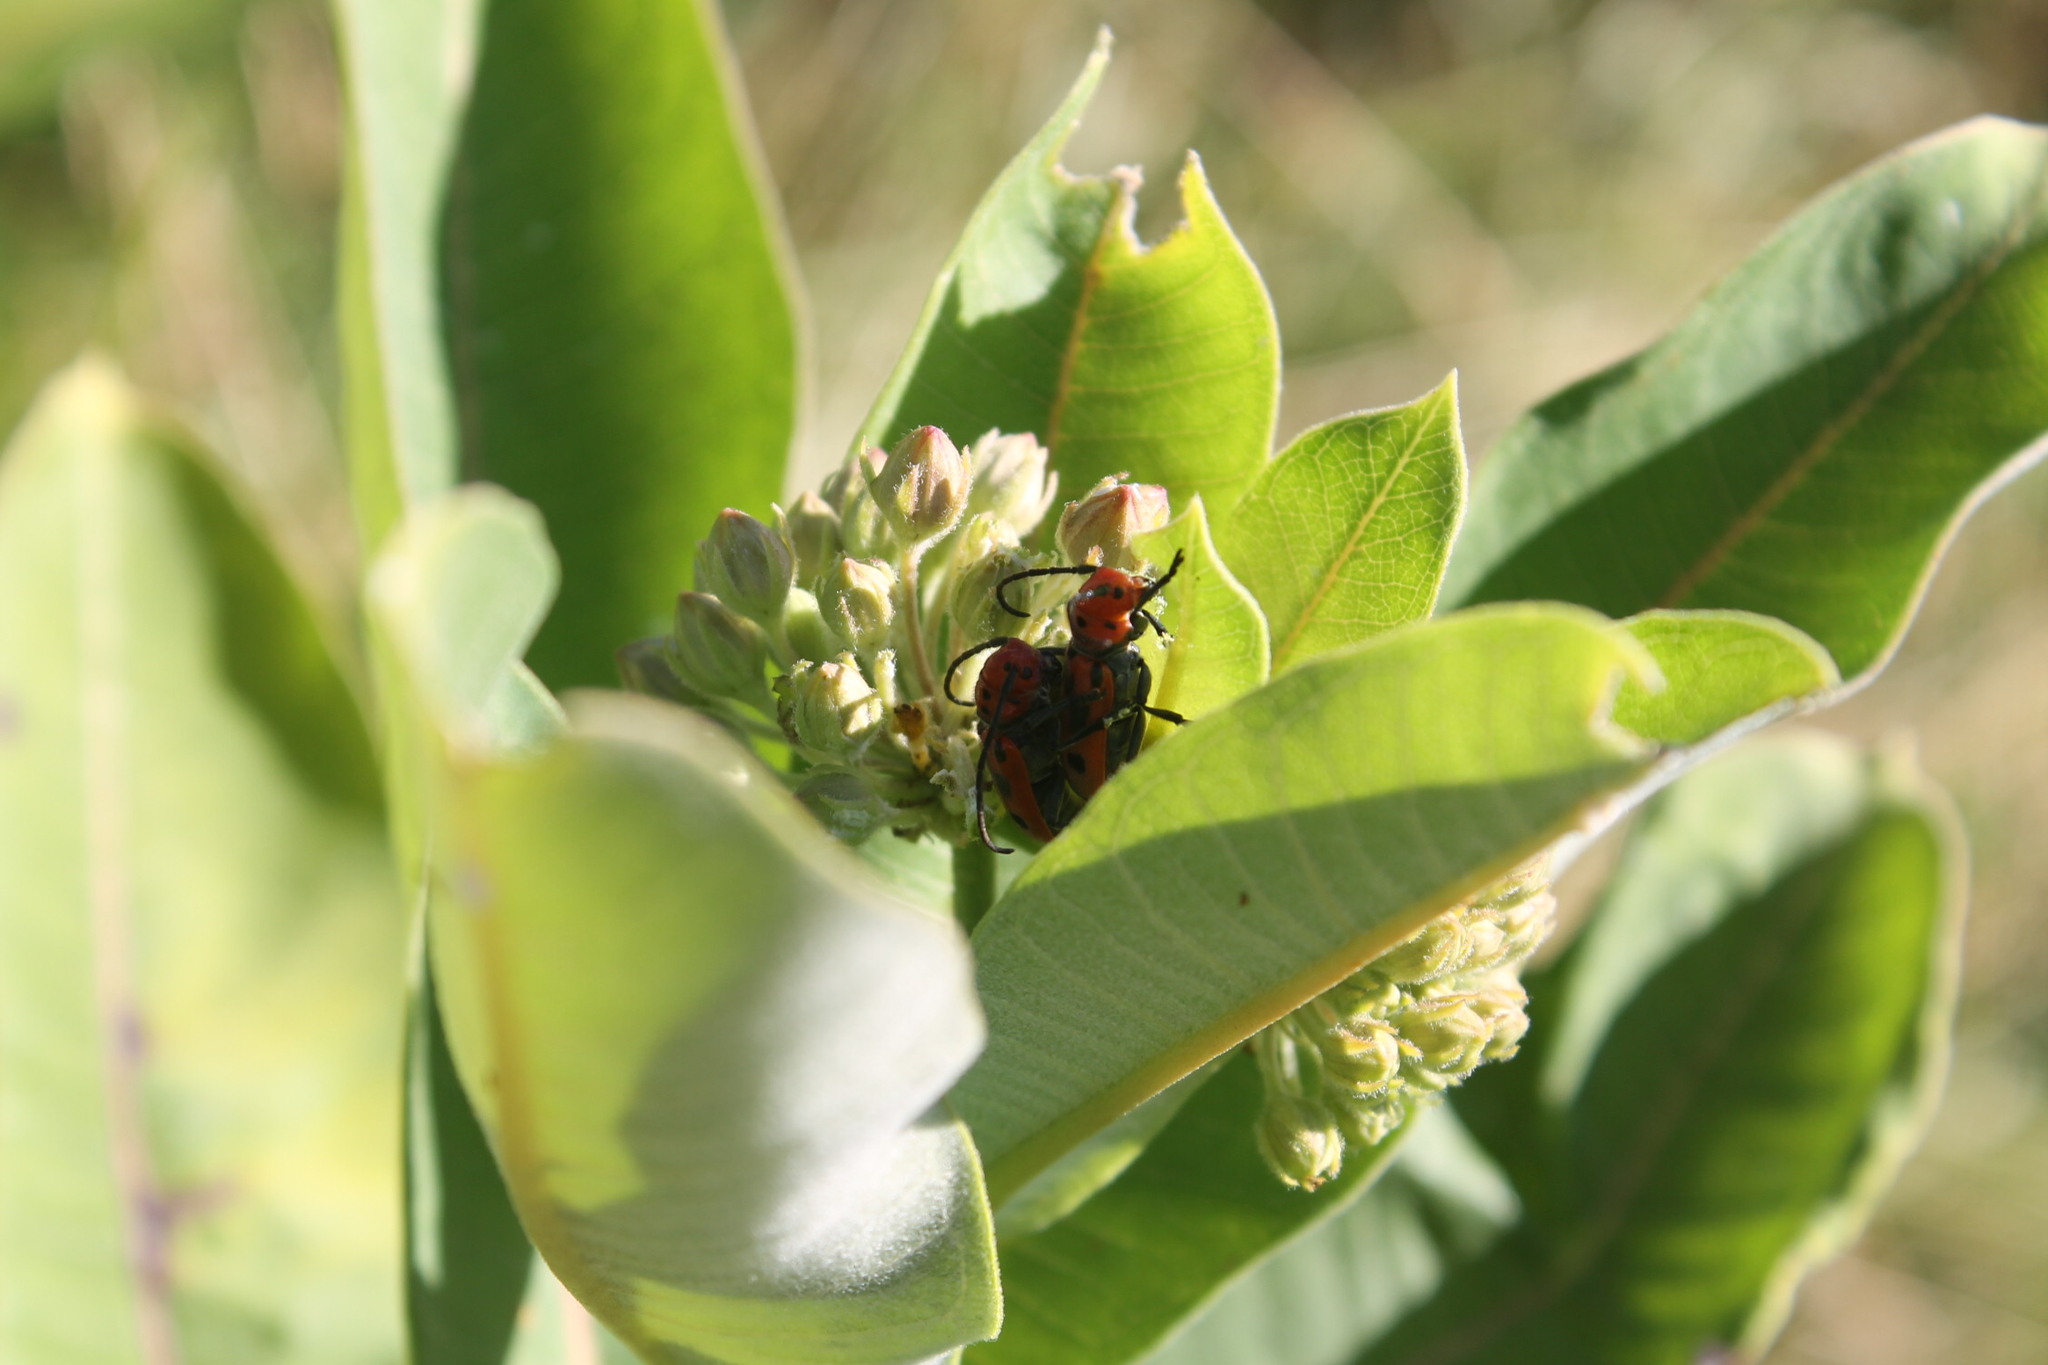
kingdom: Animalia
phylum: Arthropoda
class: Insecta
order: Coleoptera
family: Cerambycidae
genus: Tetraopes
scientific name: Tetraopes tetrophthalmus
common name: Red milkweed beetle
